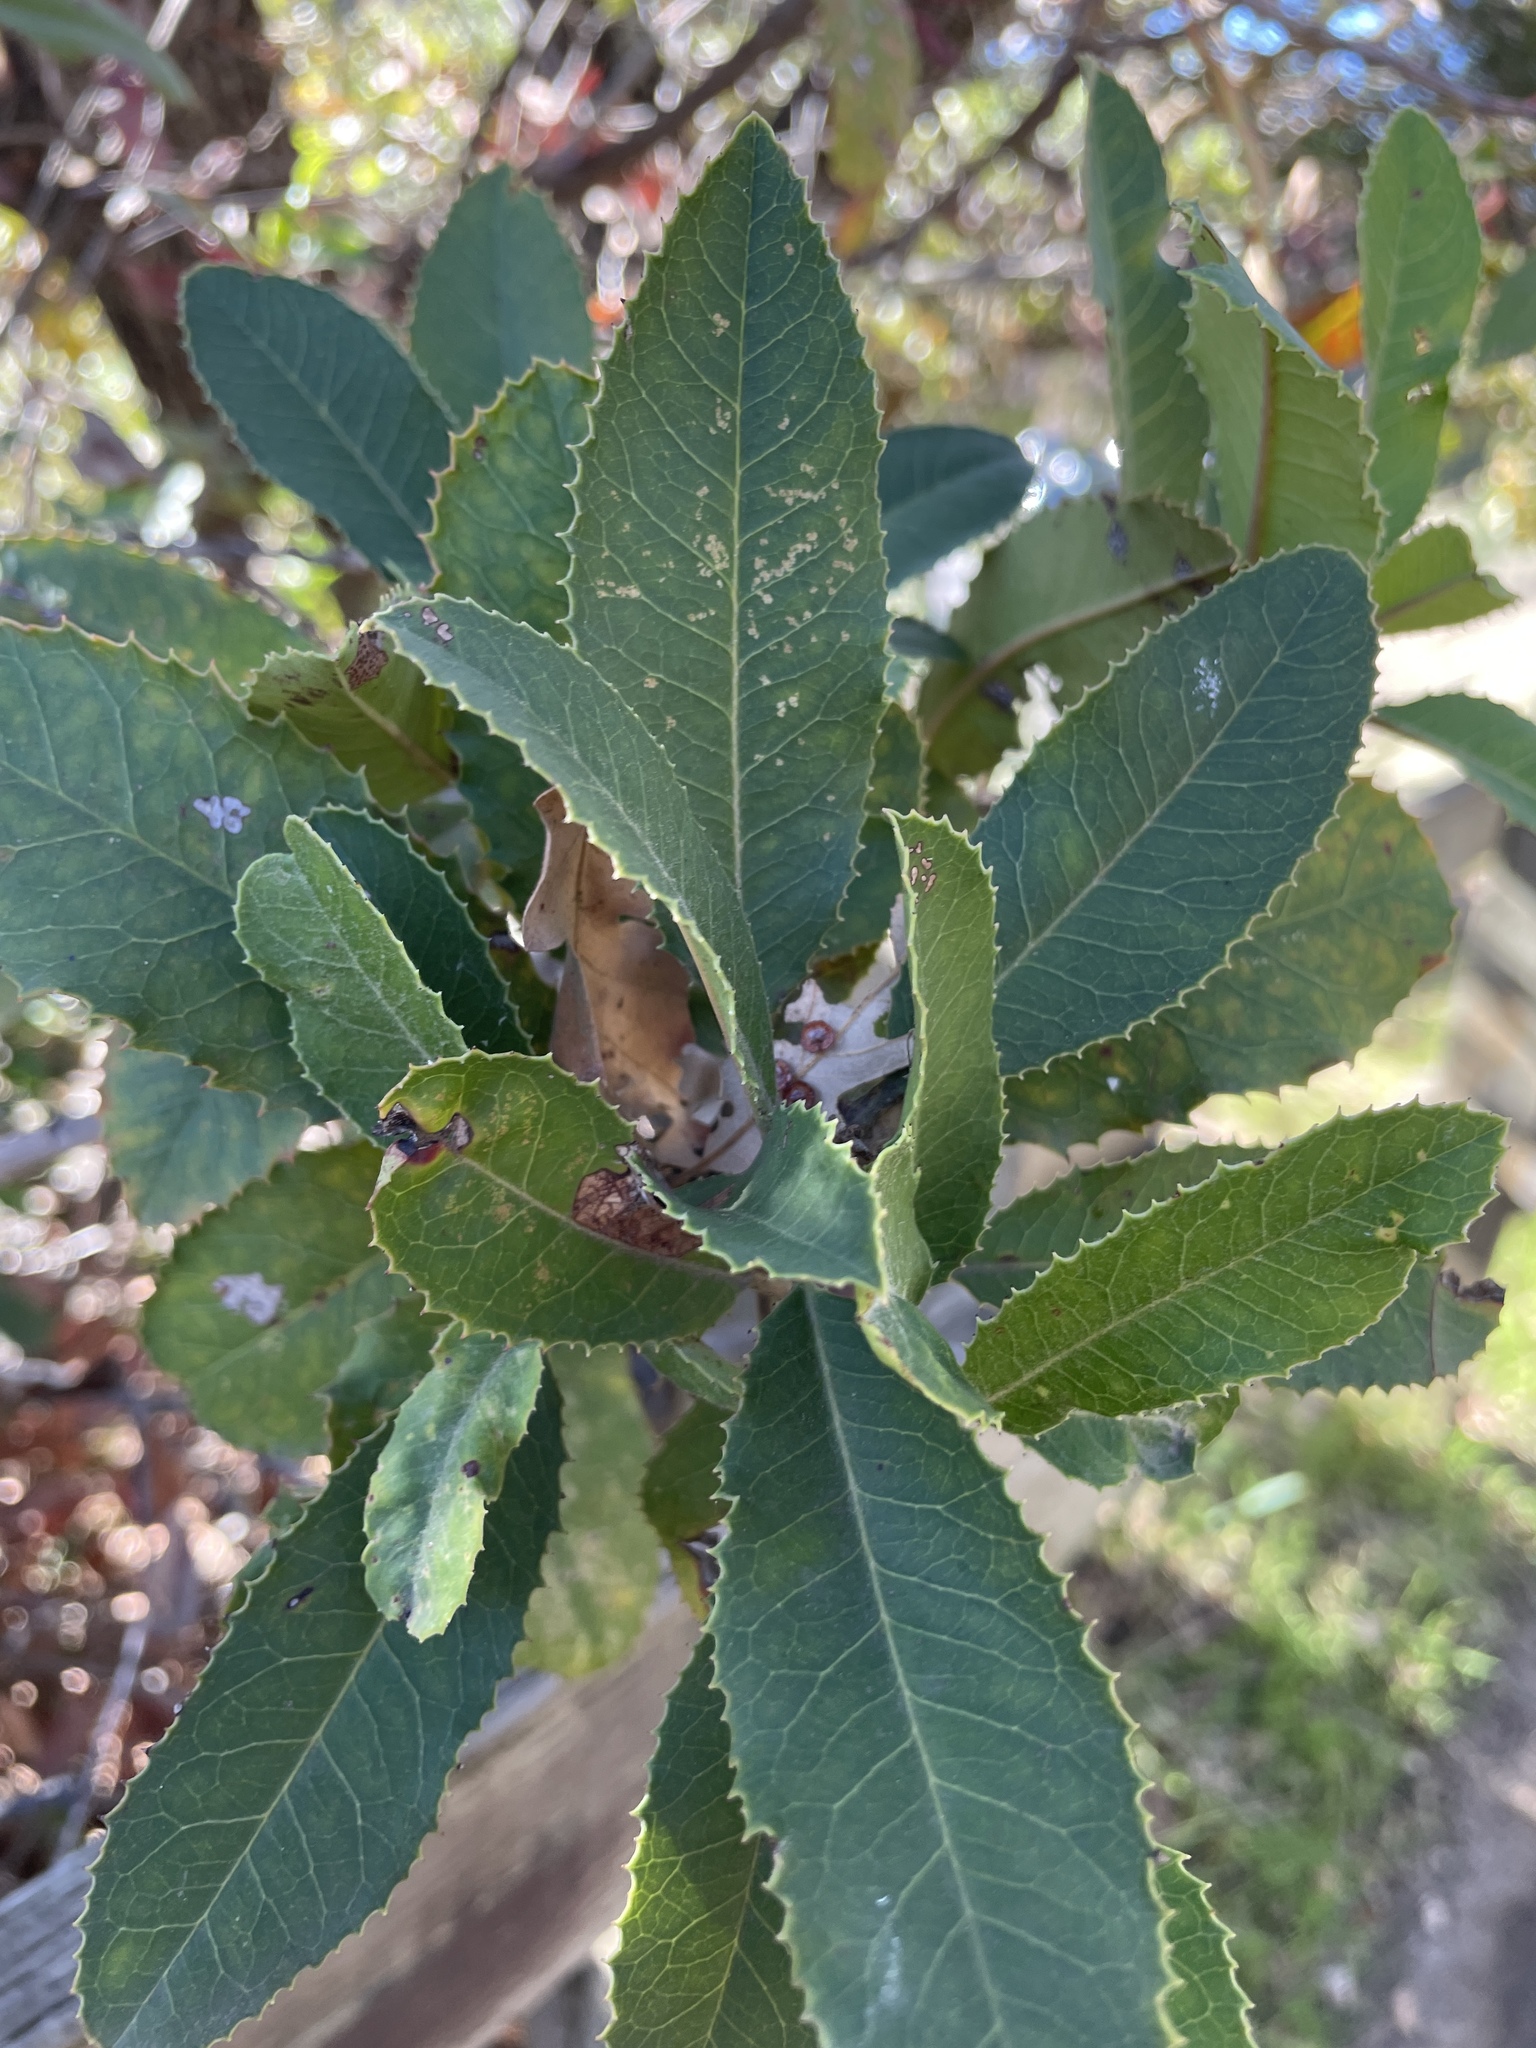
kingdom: Plantae
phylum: Tracheophyta
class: Magnoliopsida
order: Rosales
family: Rosaceae
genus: Heteromeles
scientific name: Heteromeles arbutifolia
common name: California-holly
